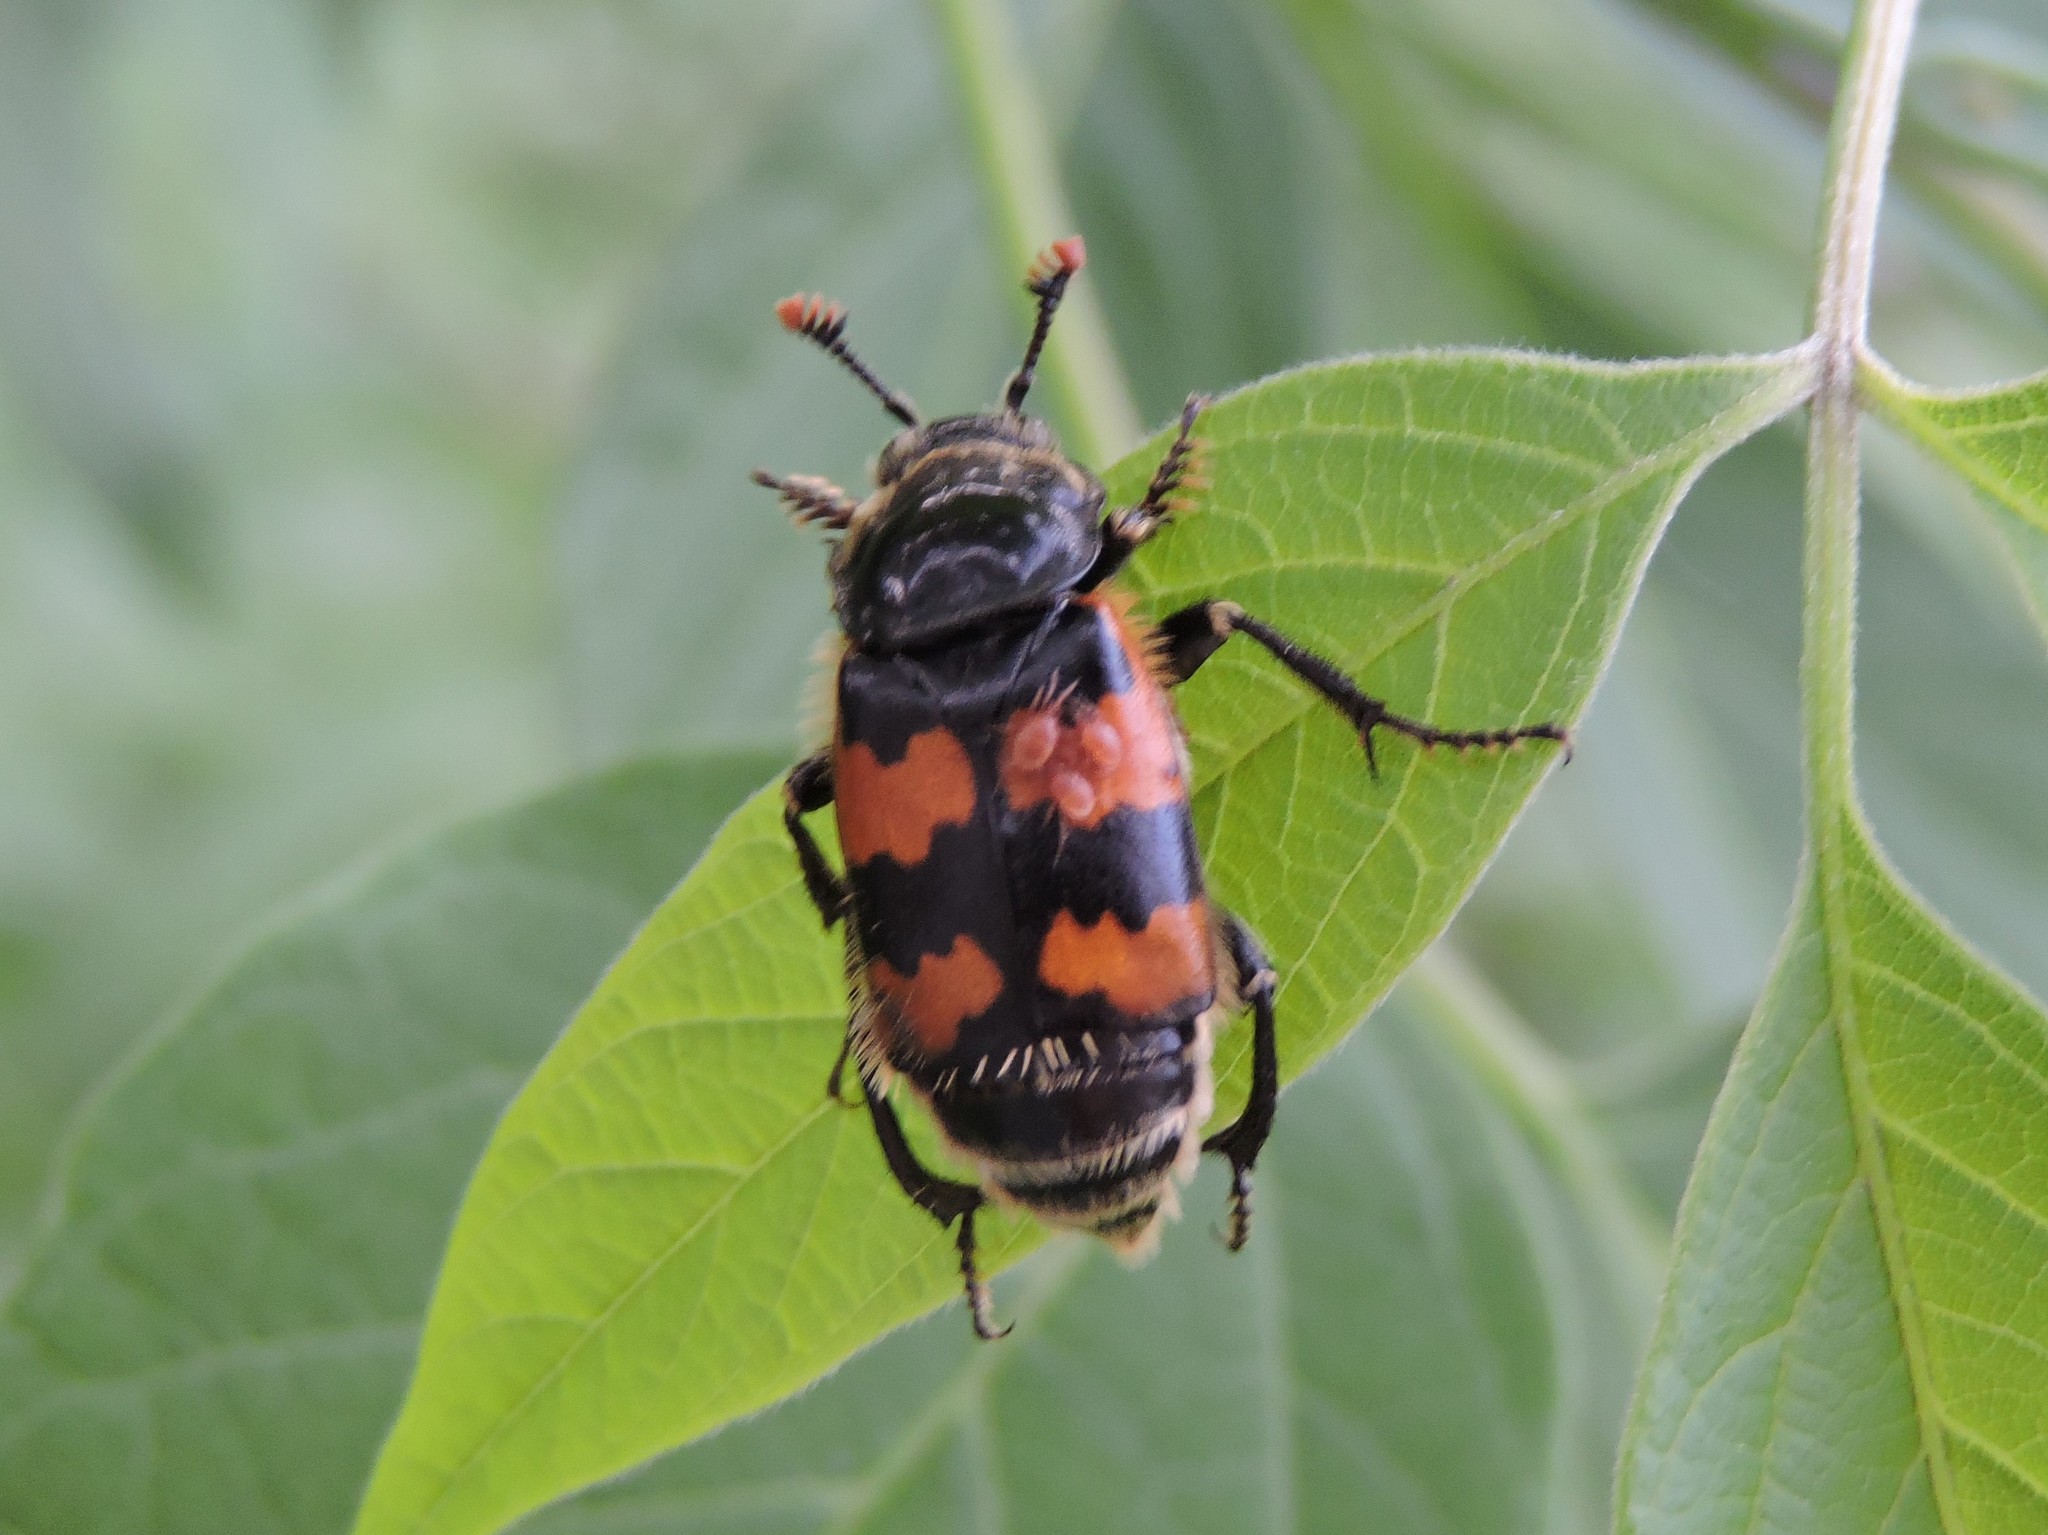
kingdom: Animalia
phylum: Arthropoda
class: Insecta
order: Coleoptera
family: Staphylinidae
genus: Nicrophorus
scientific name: Nicrophorus vespillo
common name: Common burying beetle
